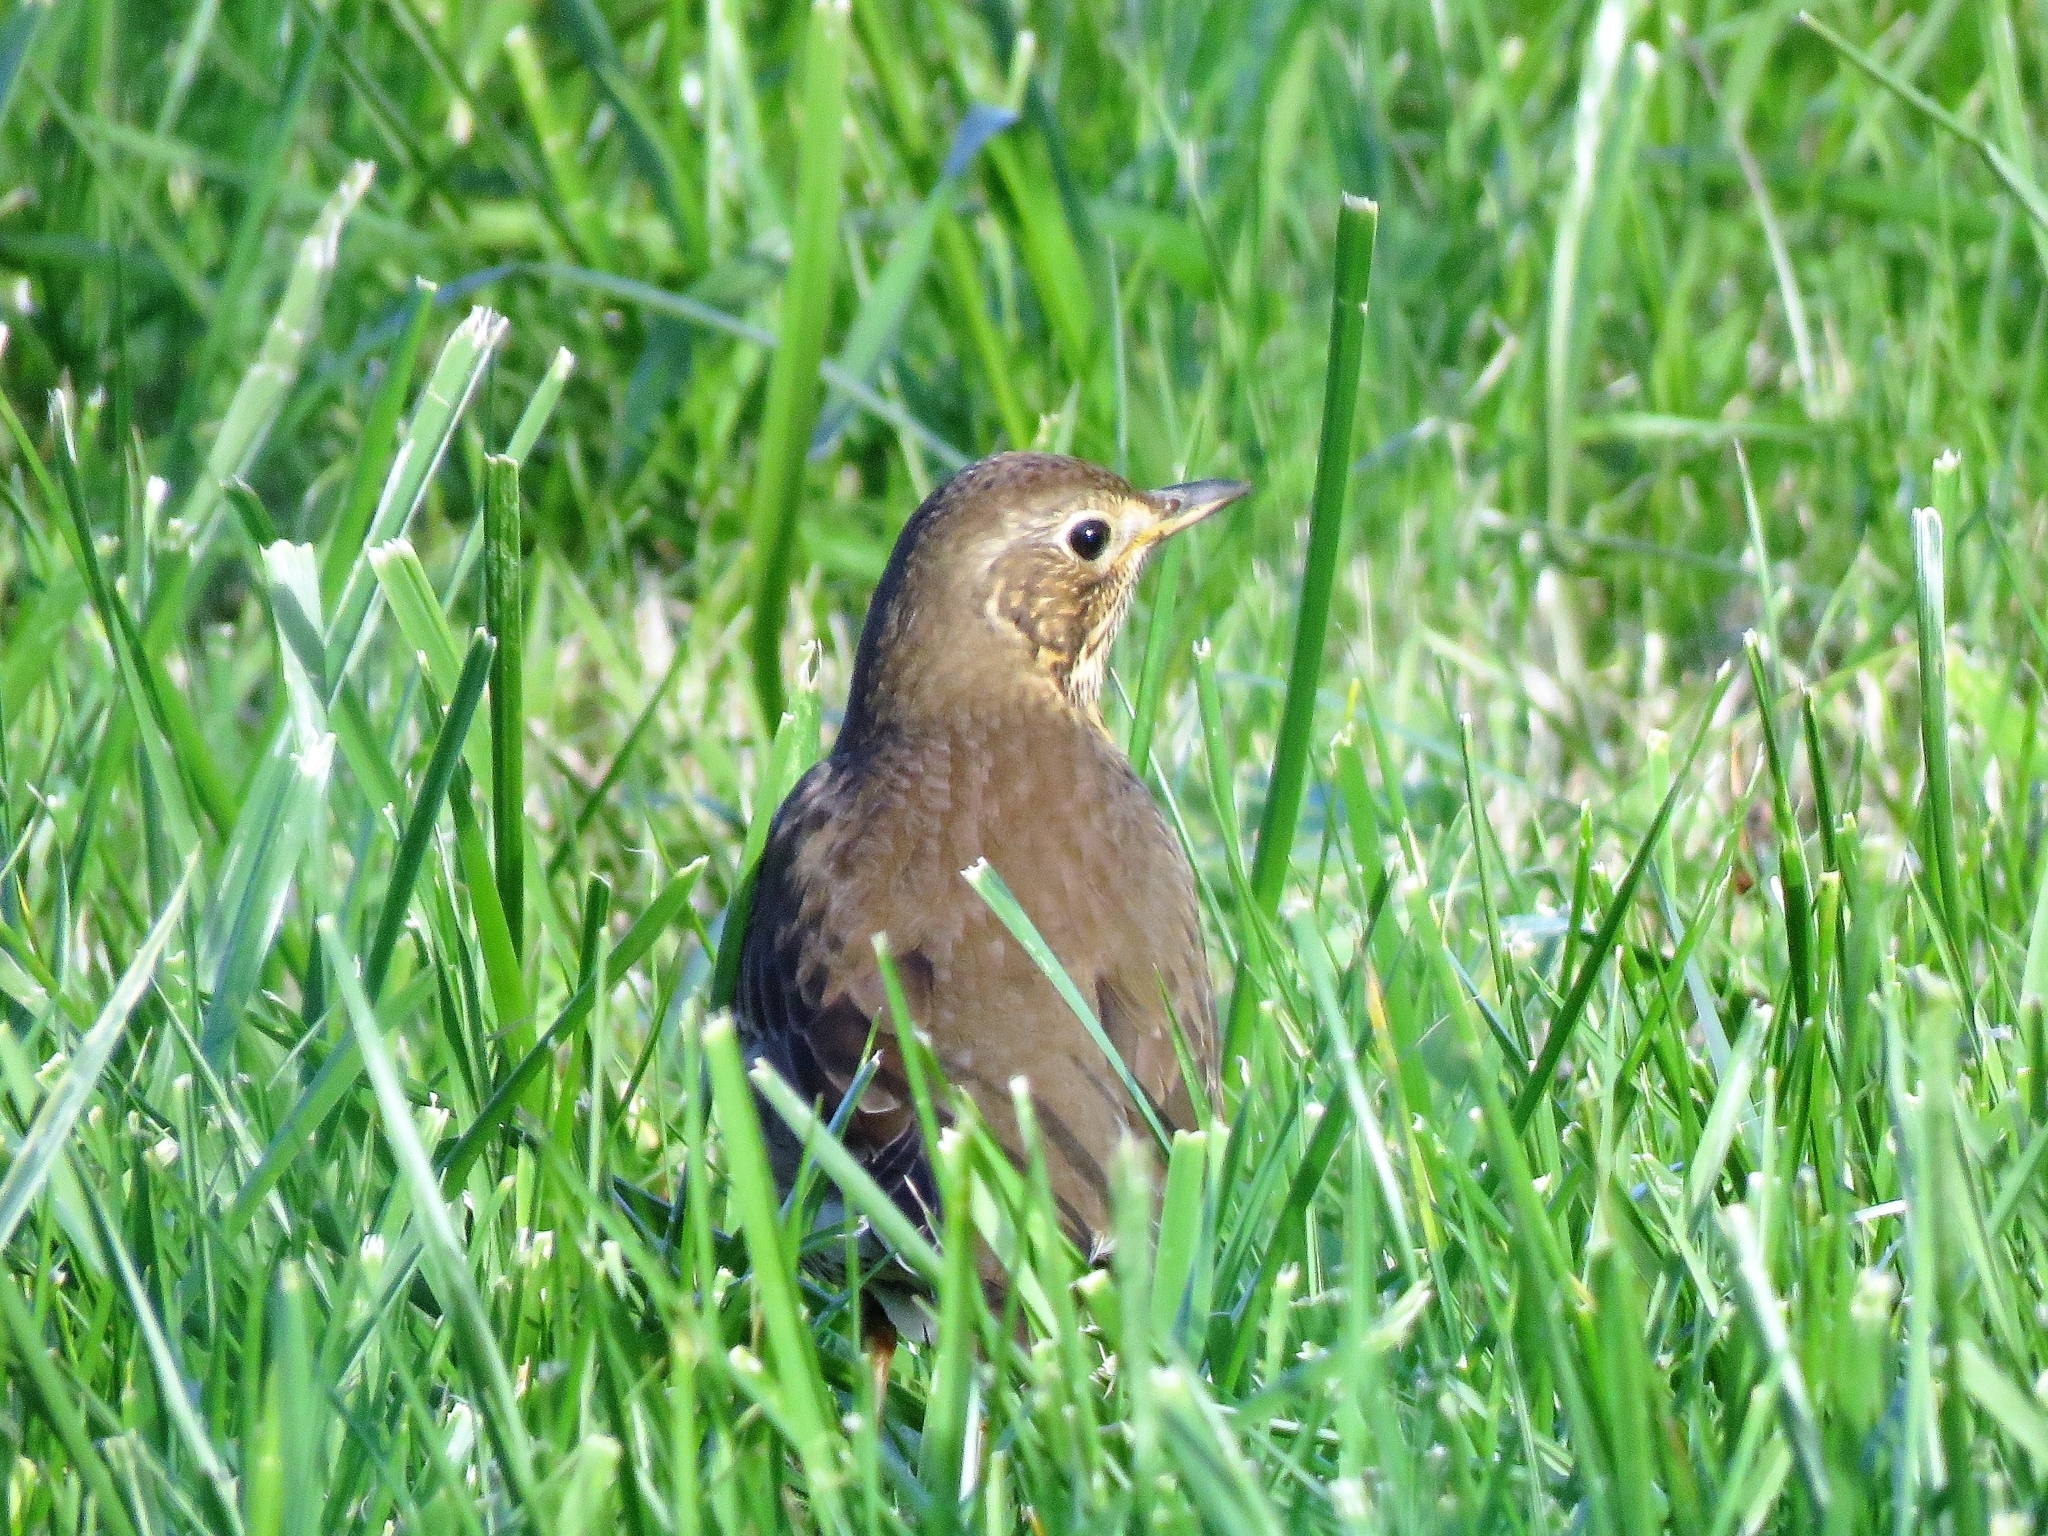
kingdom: Animalia
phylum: Chordata
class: Aves
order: Passeriformes
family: Turdidae
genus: Turdus
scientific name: Turdus philomelos
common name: Song thrush
